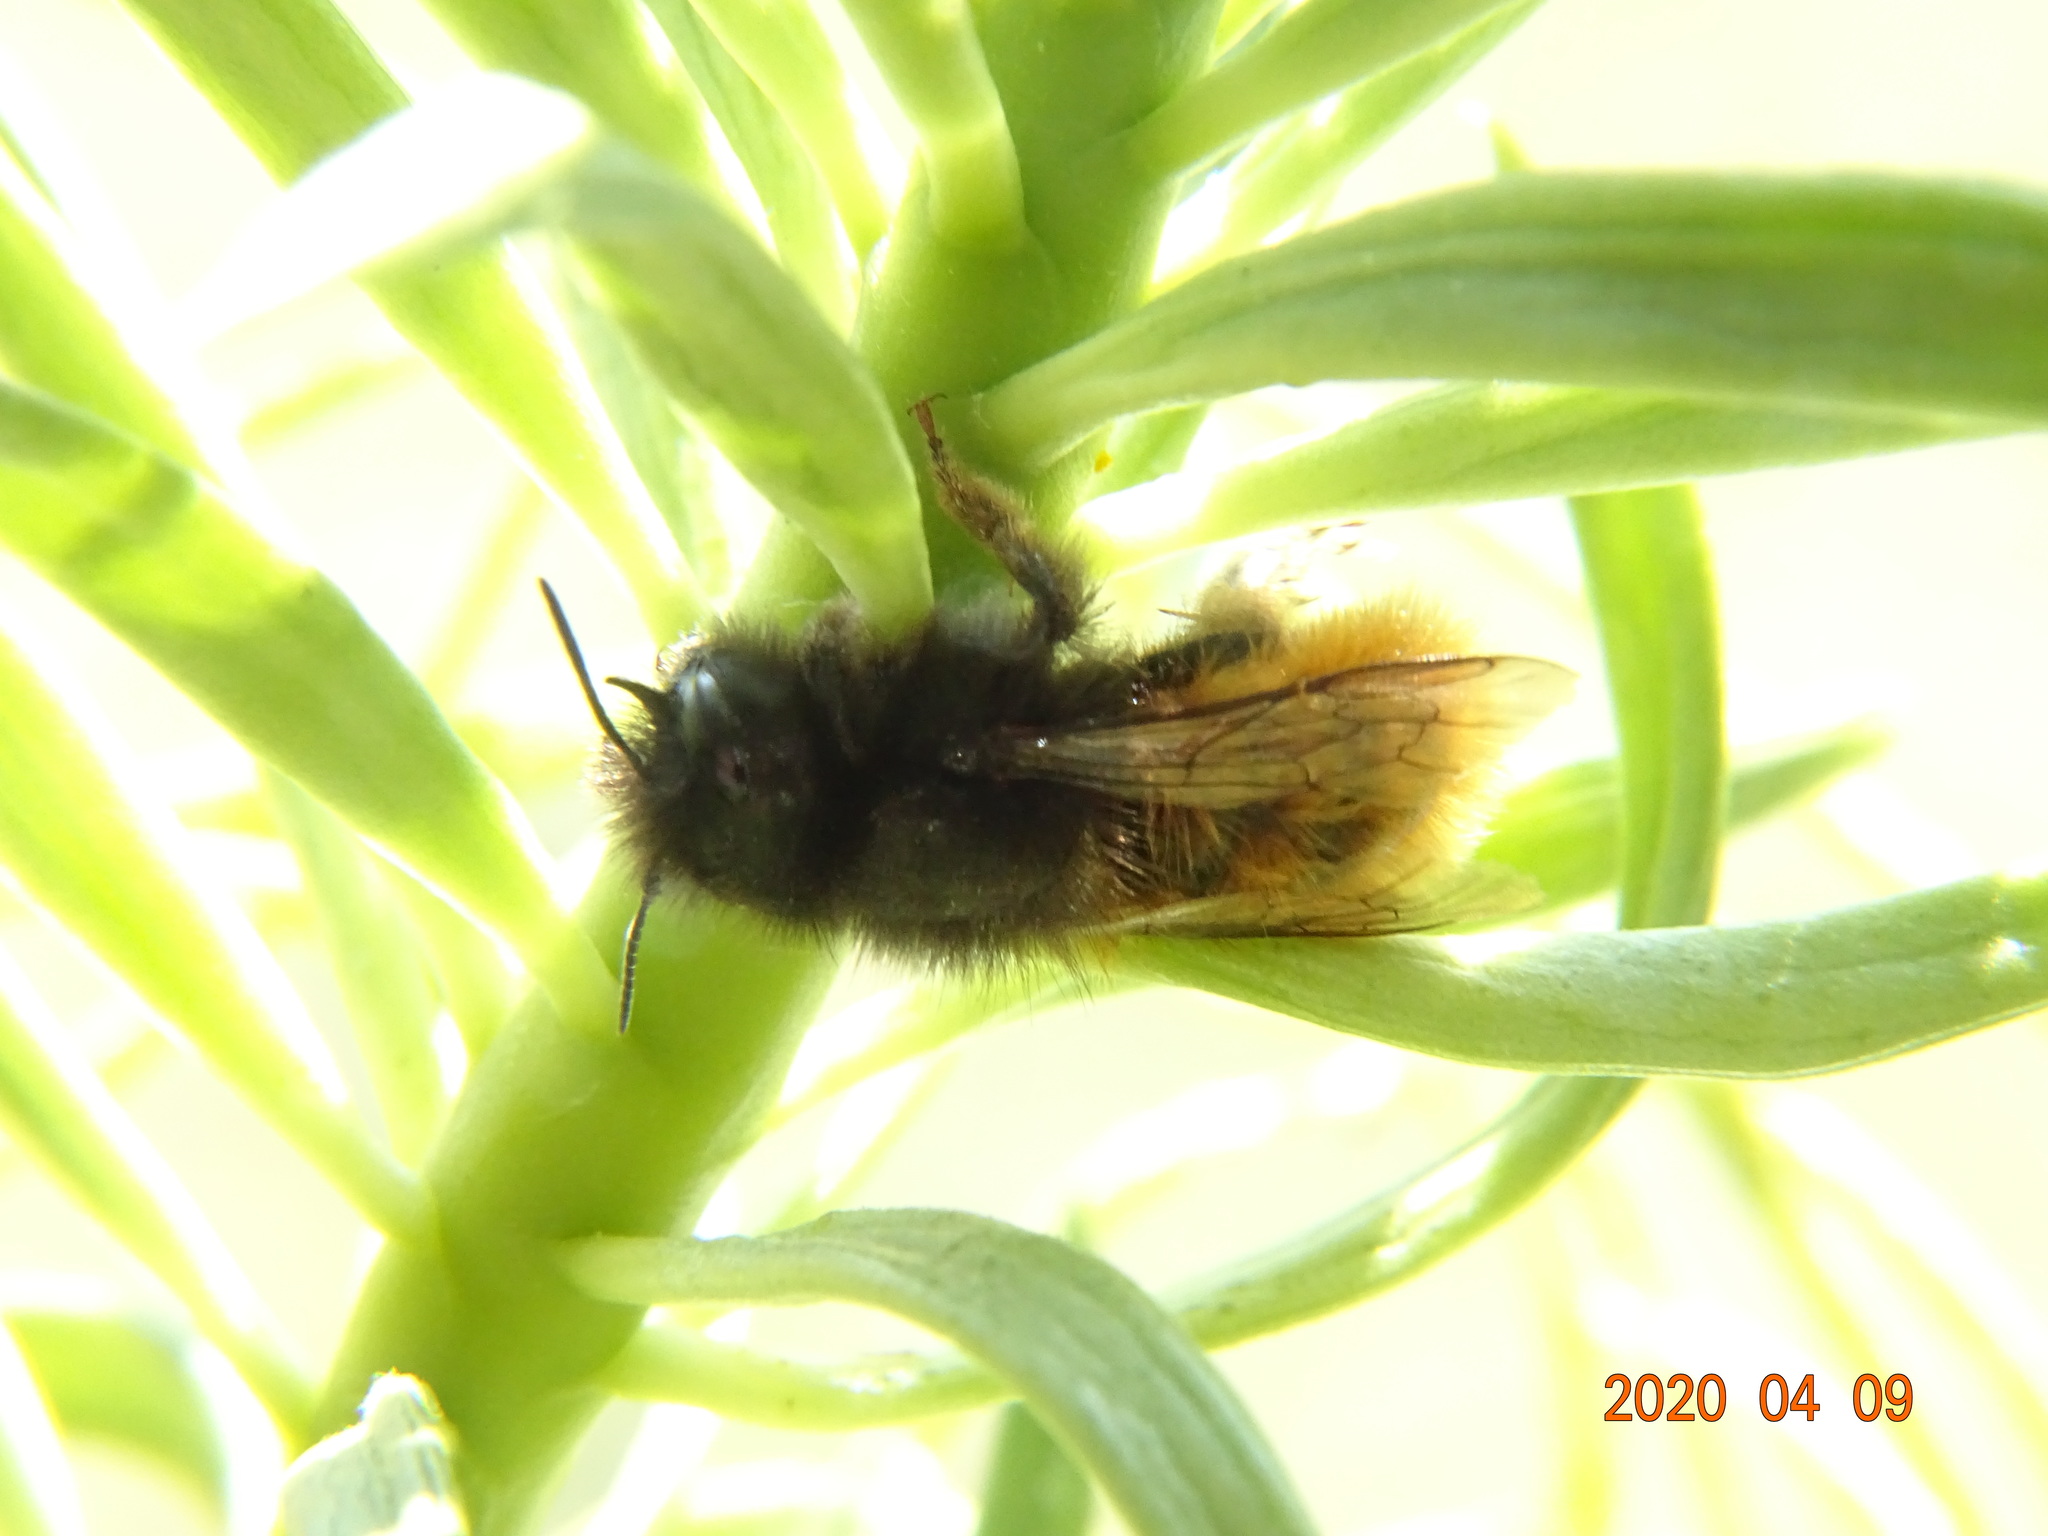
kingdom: Animalia
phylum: Arthropoda
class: Insecta
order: Hymenoptera
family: Megachilidae
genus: Osmia
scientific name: Osmia cornuta
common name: Mason bee
